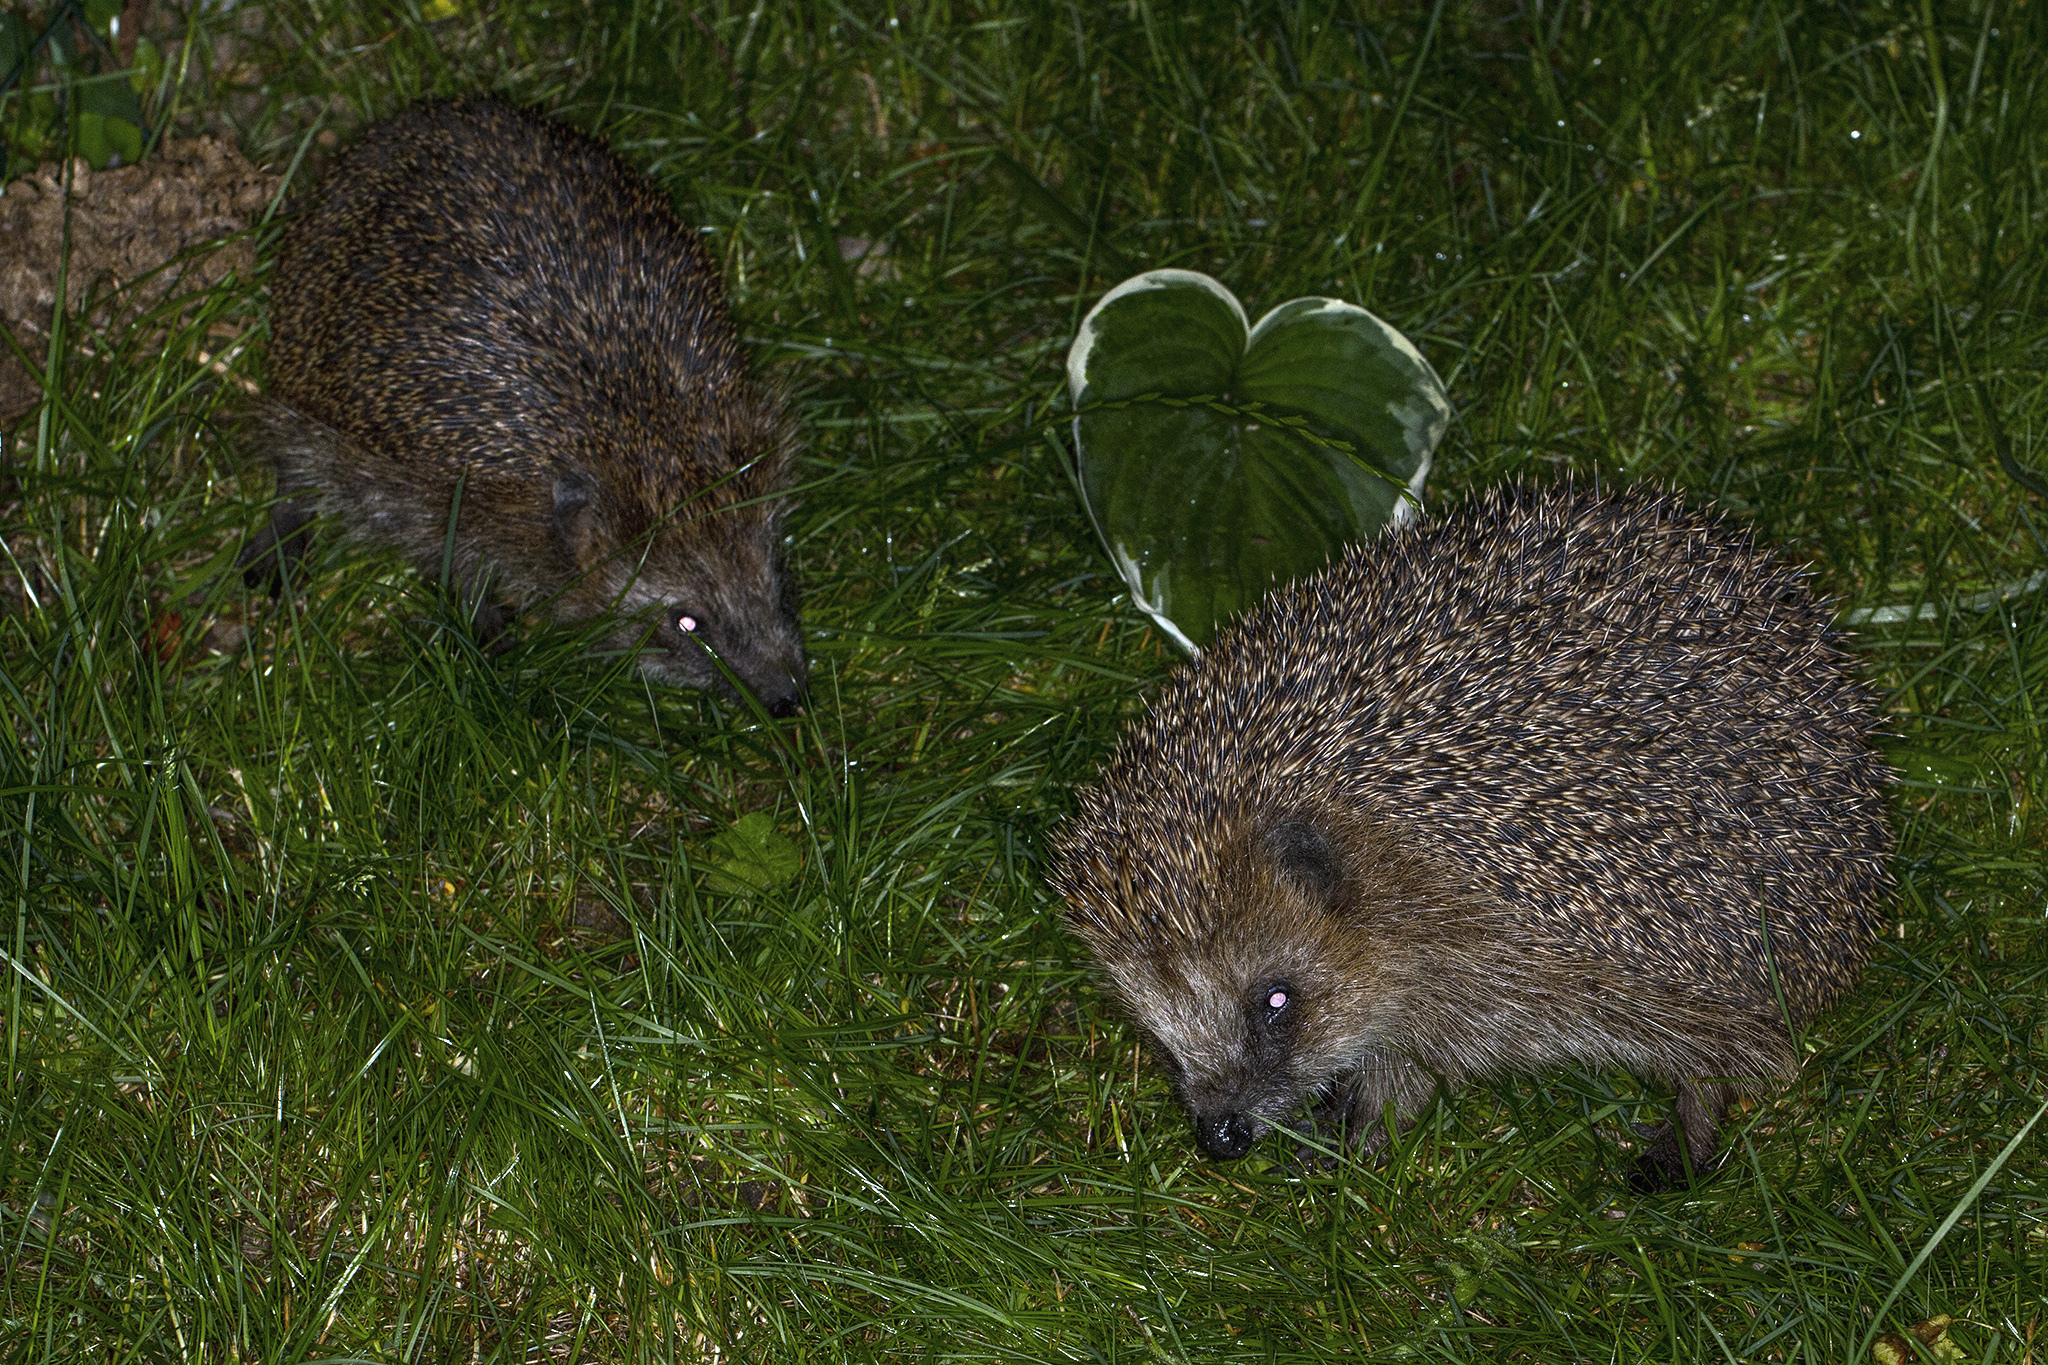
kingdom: Animalia
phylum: Chordata
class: Mammalia
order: Erinaceomorpha
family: Erinaceidae
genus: Erinaceus
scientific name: Erinaceus europaeus
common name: West european hedgehog
